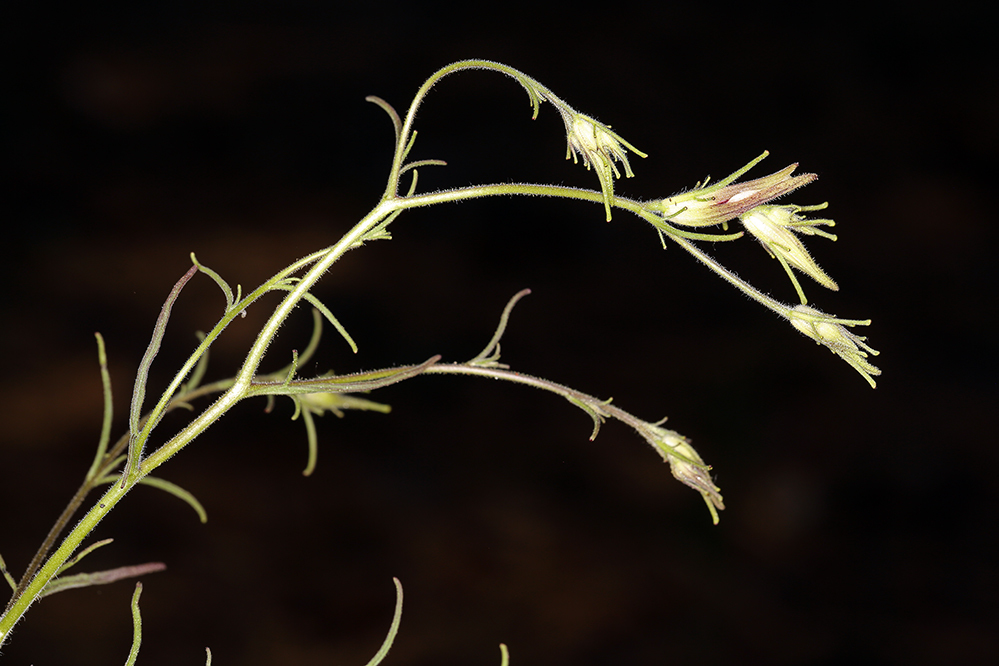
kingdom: Plantae
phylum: Tracheophyta
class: Magnoliopsida
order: Lamiales
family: Orobanchaceae
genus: Cordylanthus
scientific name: Cordylanthus tenuis
